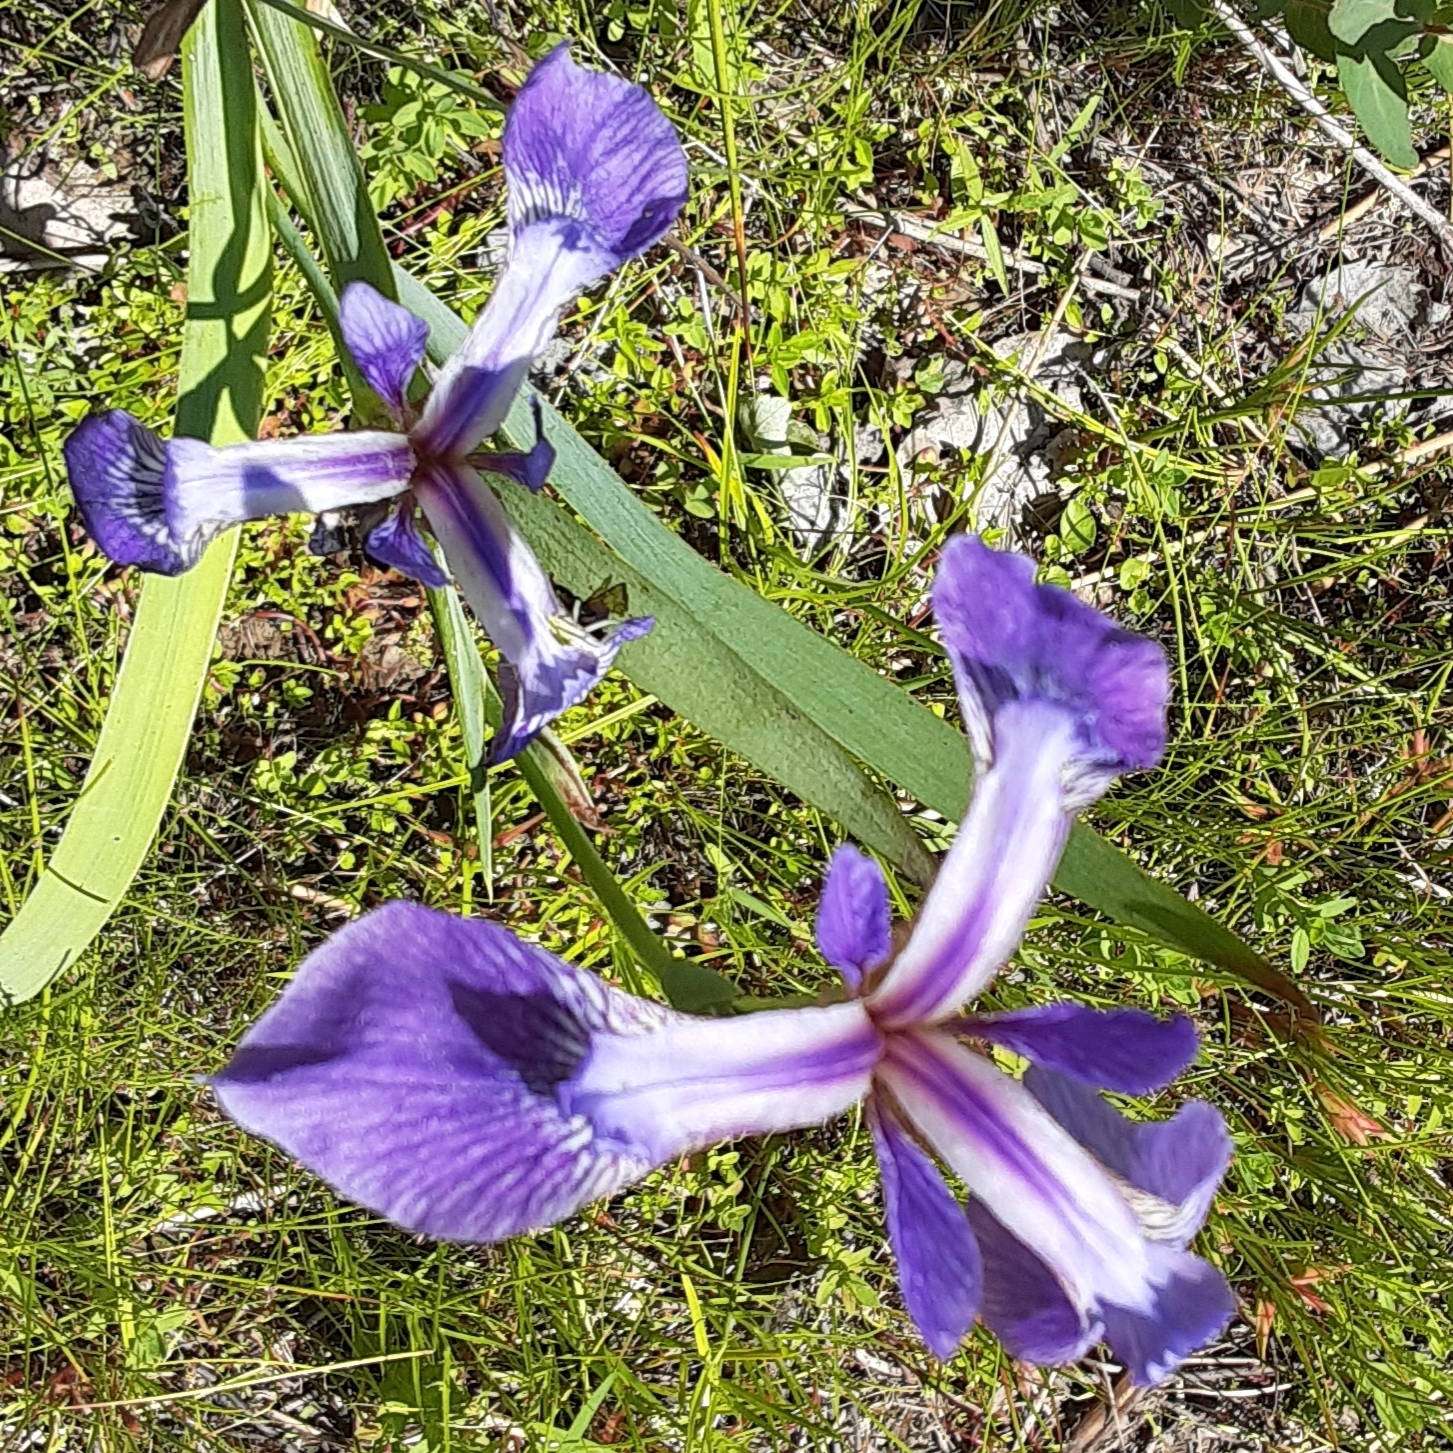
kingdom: Plantae
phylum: Tracheophyta
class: Liliopsida
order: Asparagales
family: Iridaceae
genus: Iris
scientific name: Iris versicolor
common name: Purple iris
